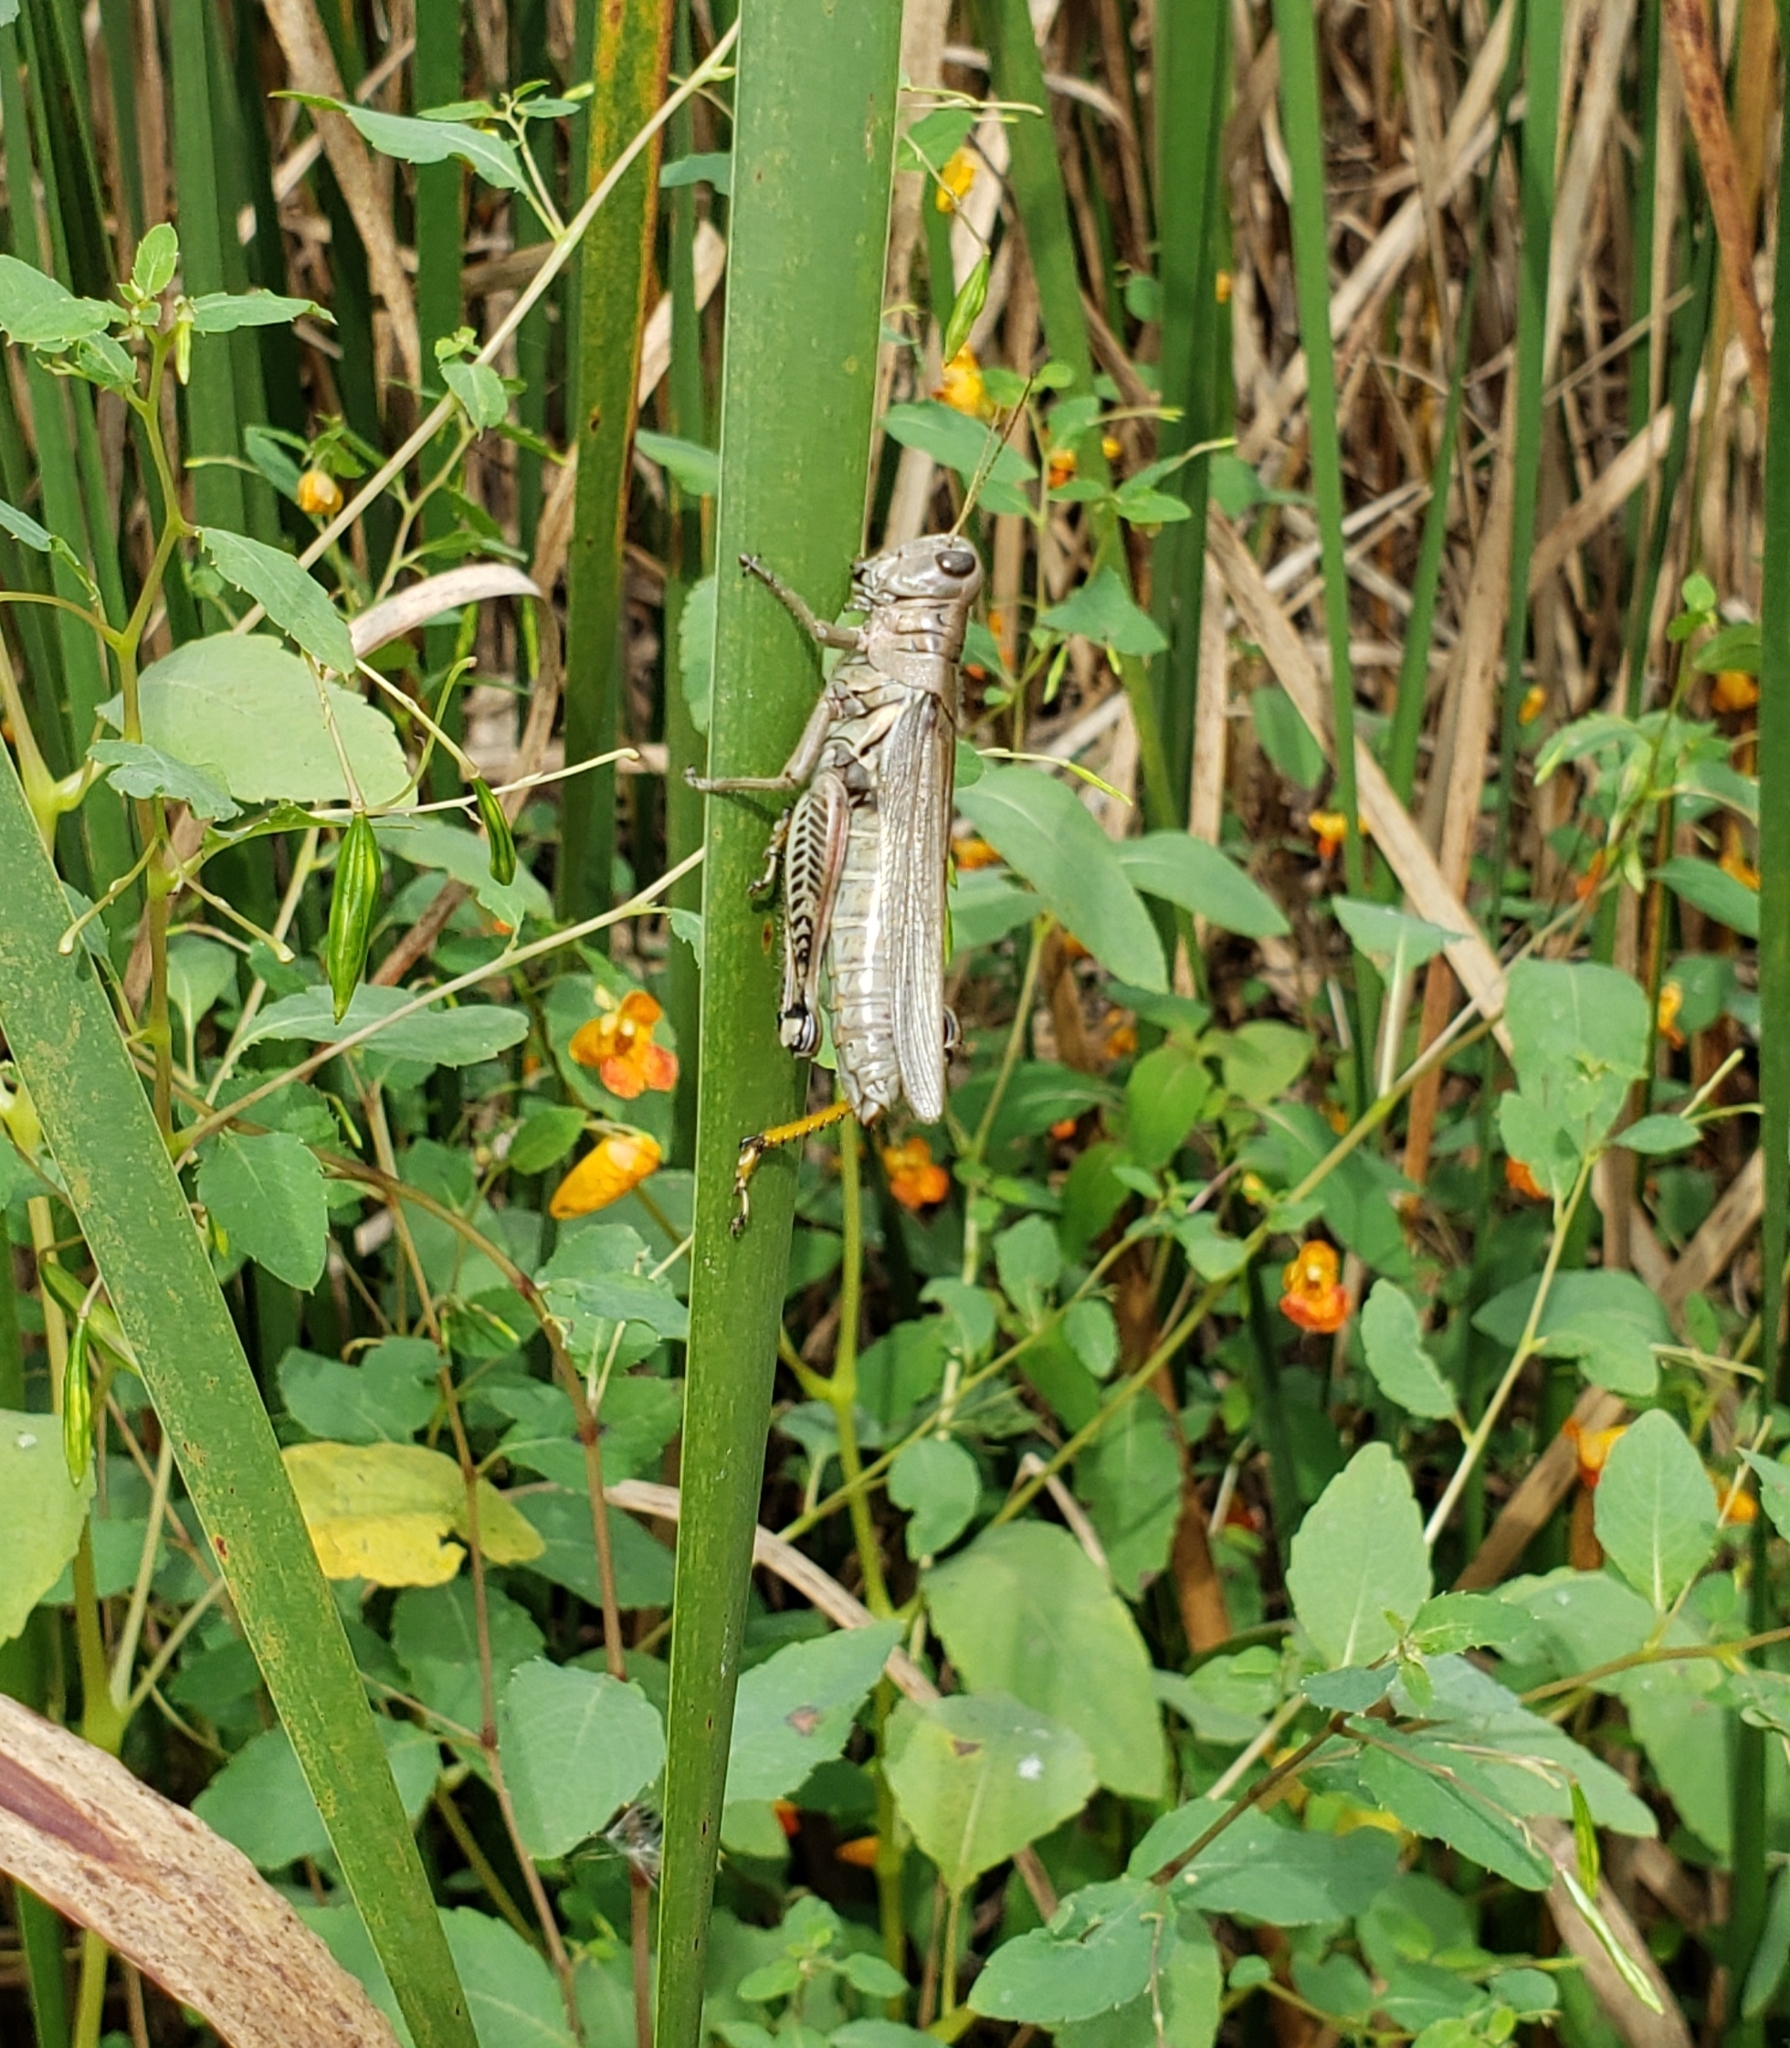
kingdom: Animalia
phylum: Arthropoda
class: Insecta
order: Orthoptera
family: Acrididae
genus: Melanoplus
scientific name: Melanoplus differentialis
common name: Differential grasshopper
